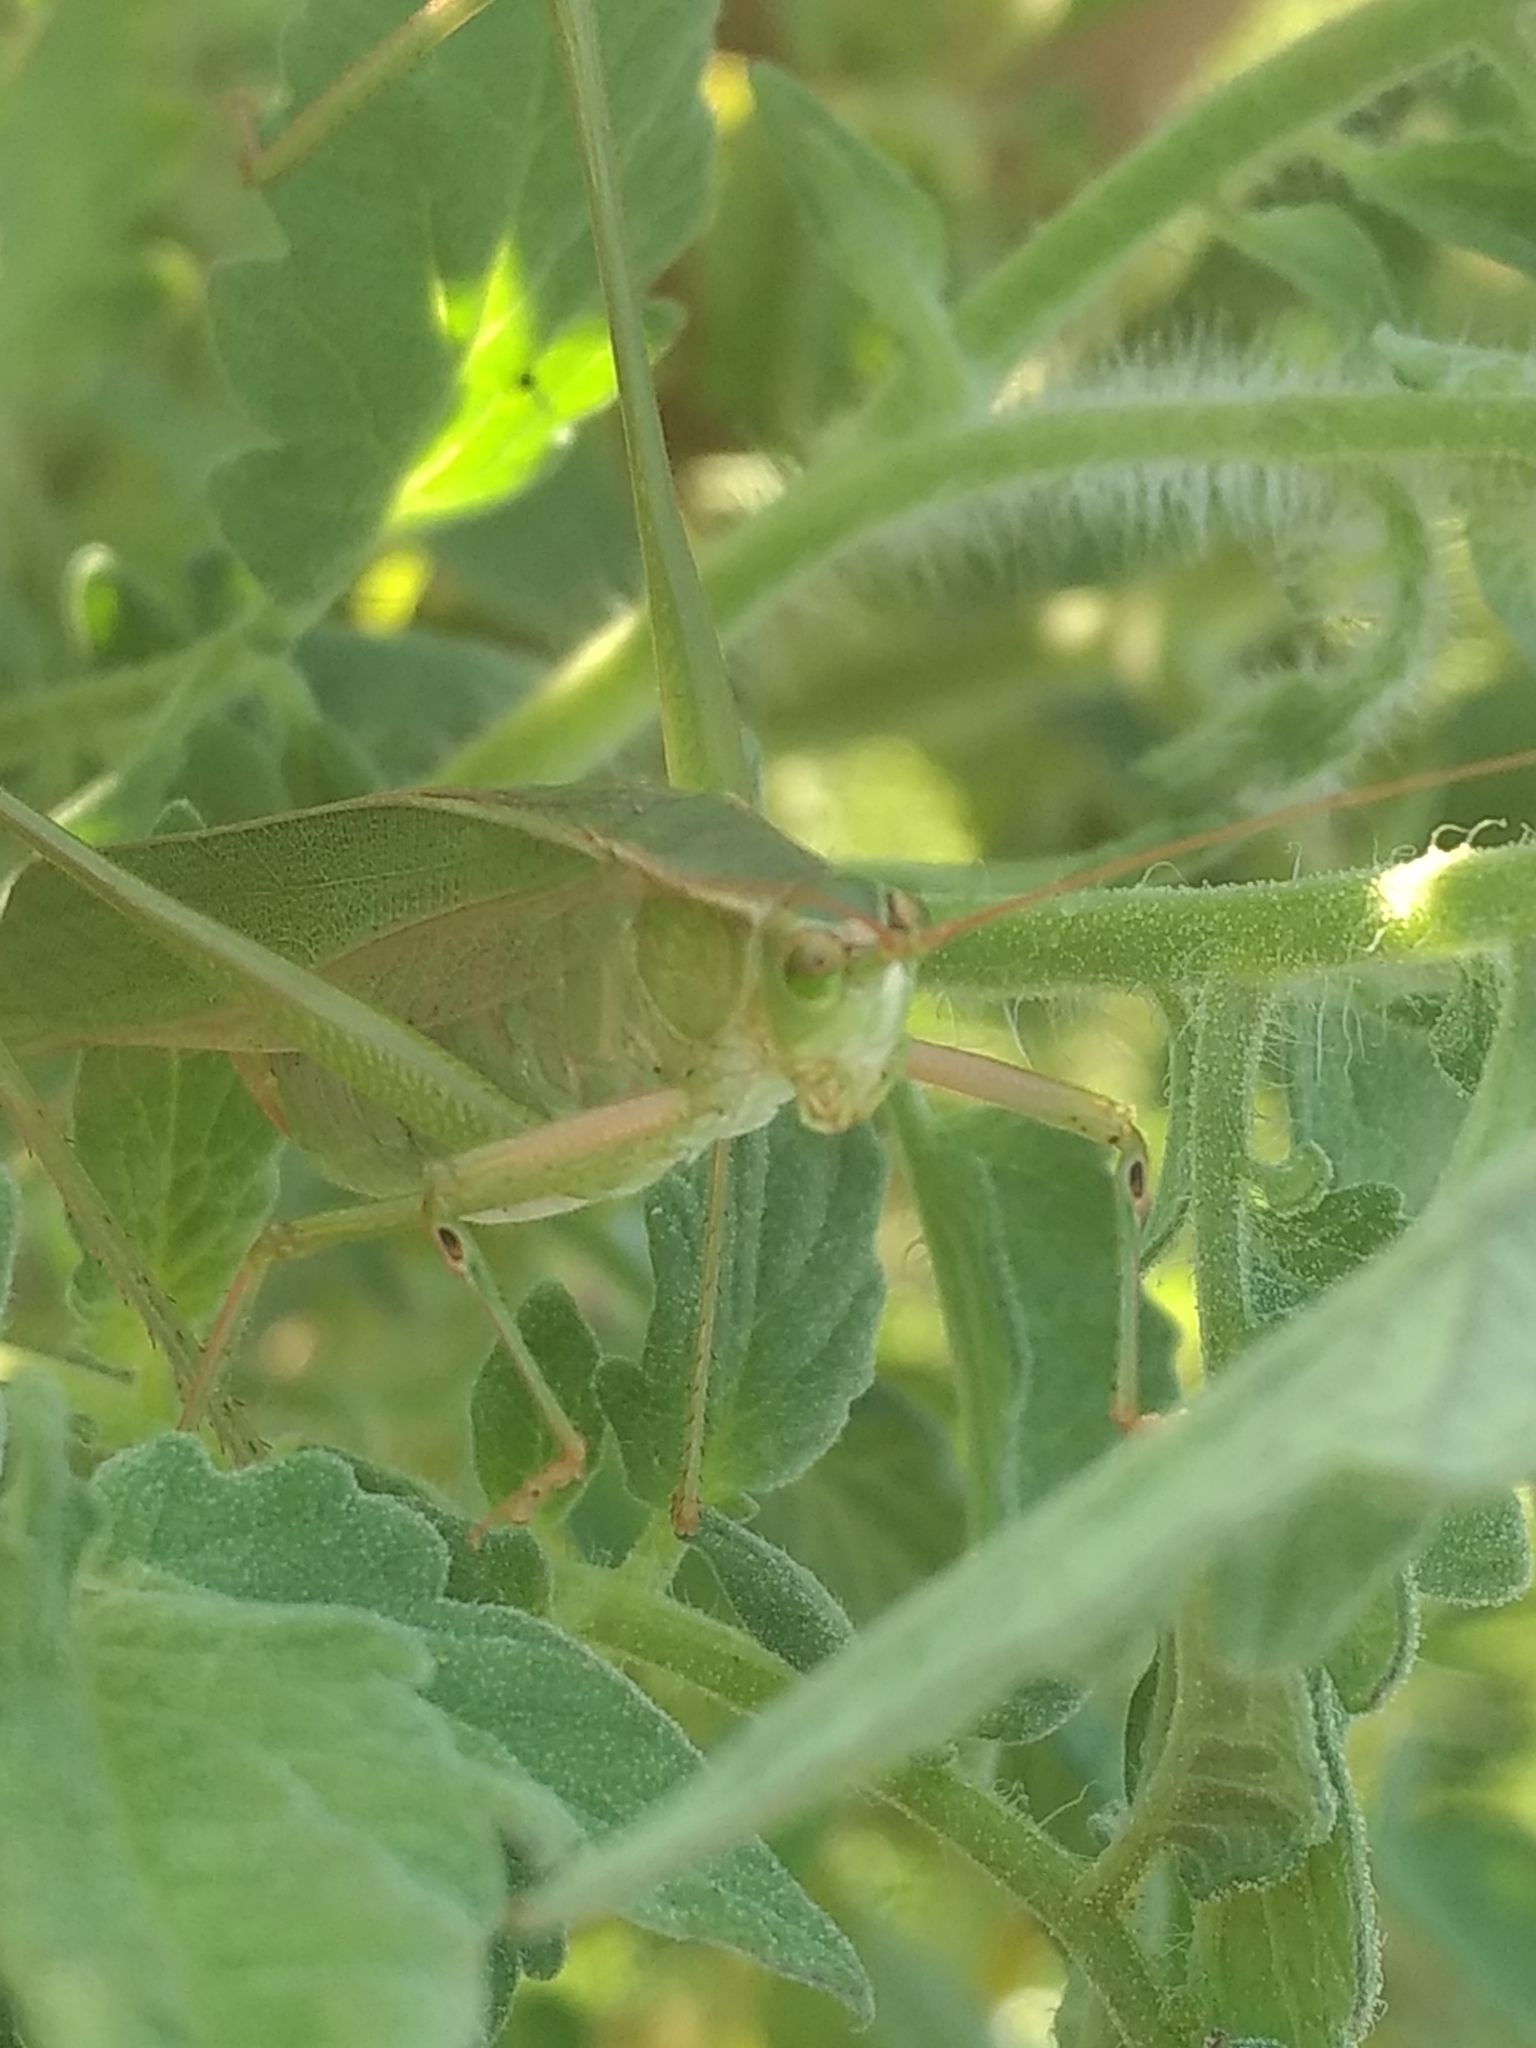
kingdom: Animalia
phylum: Arthropoda
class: Insecta
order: Orthoptera
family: Tettigoniidae
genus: Scudderia
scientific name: Scudderia
